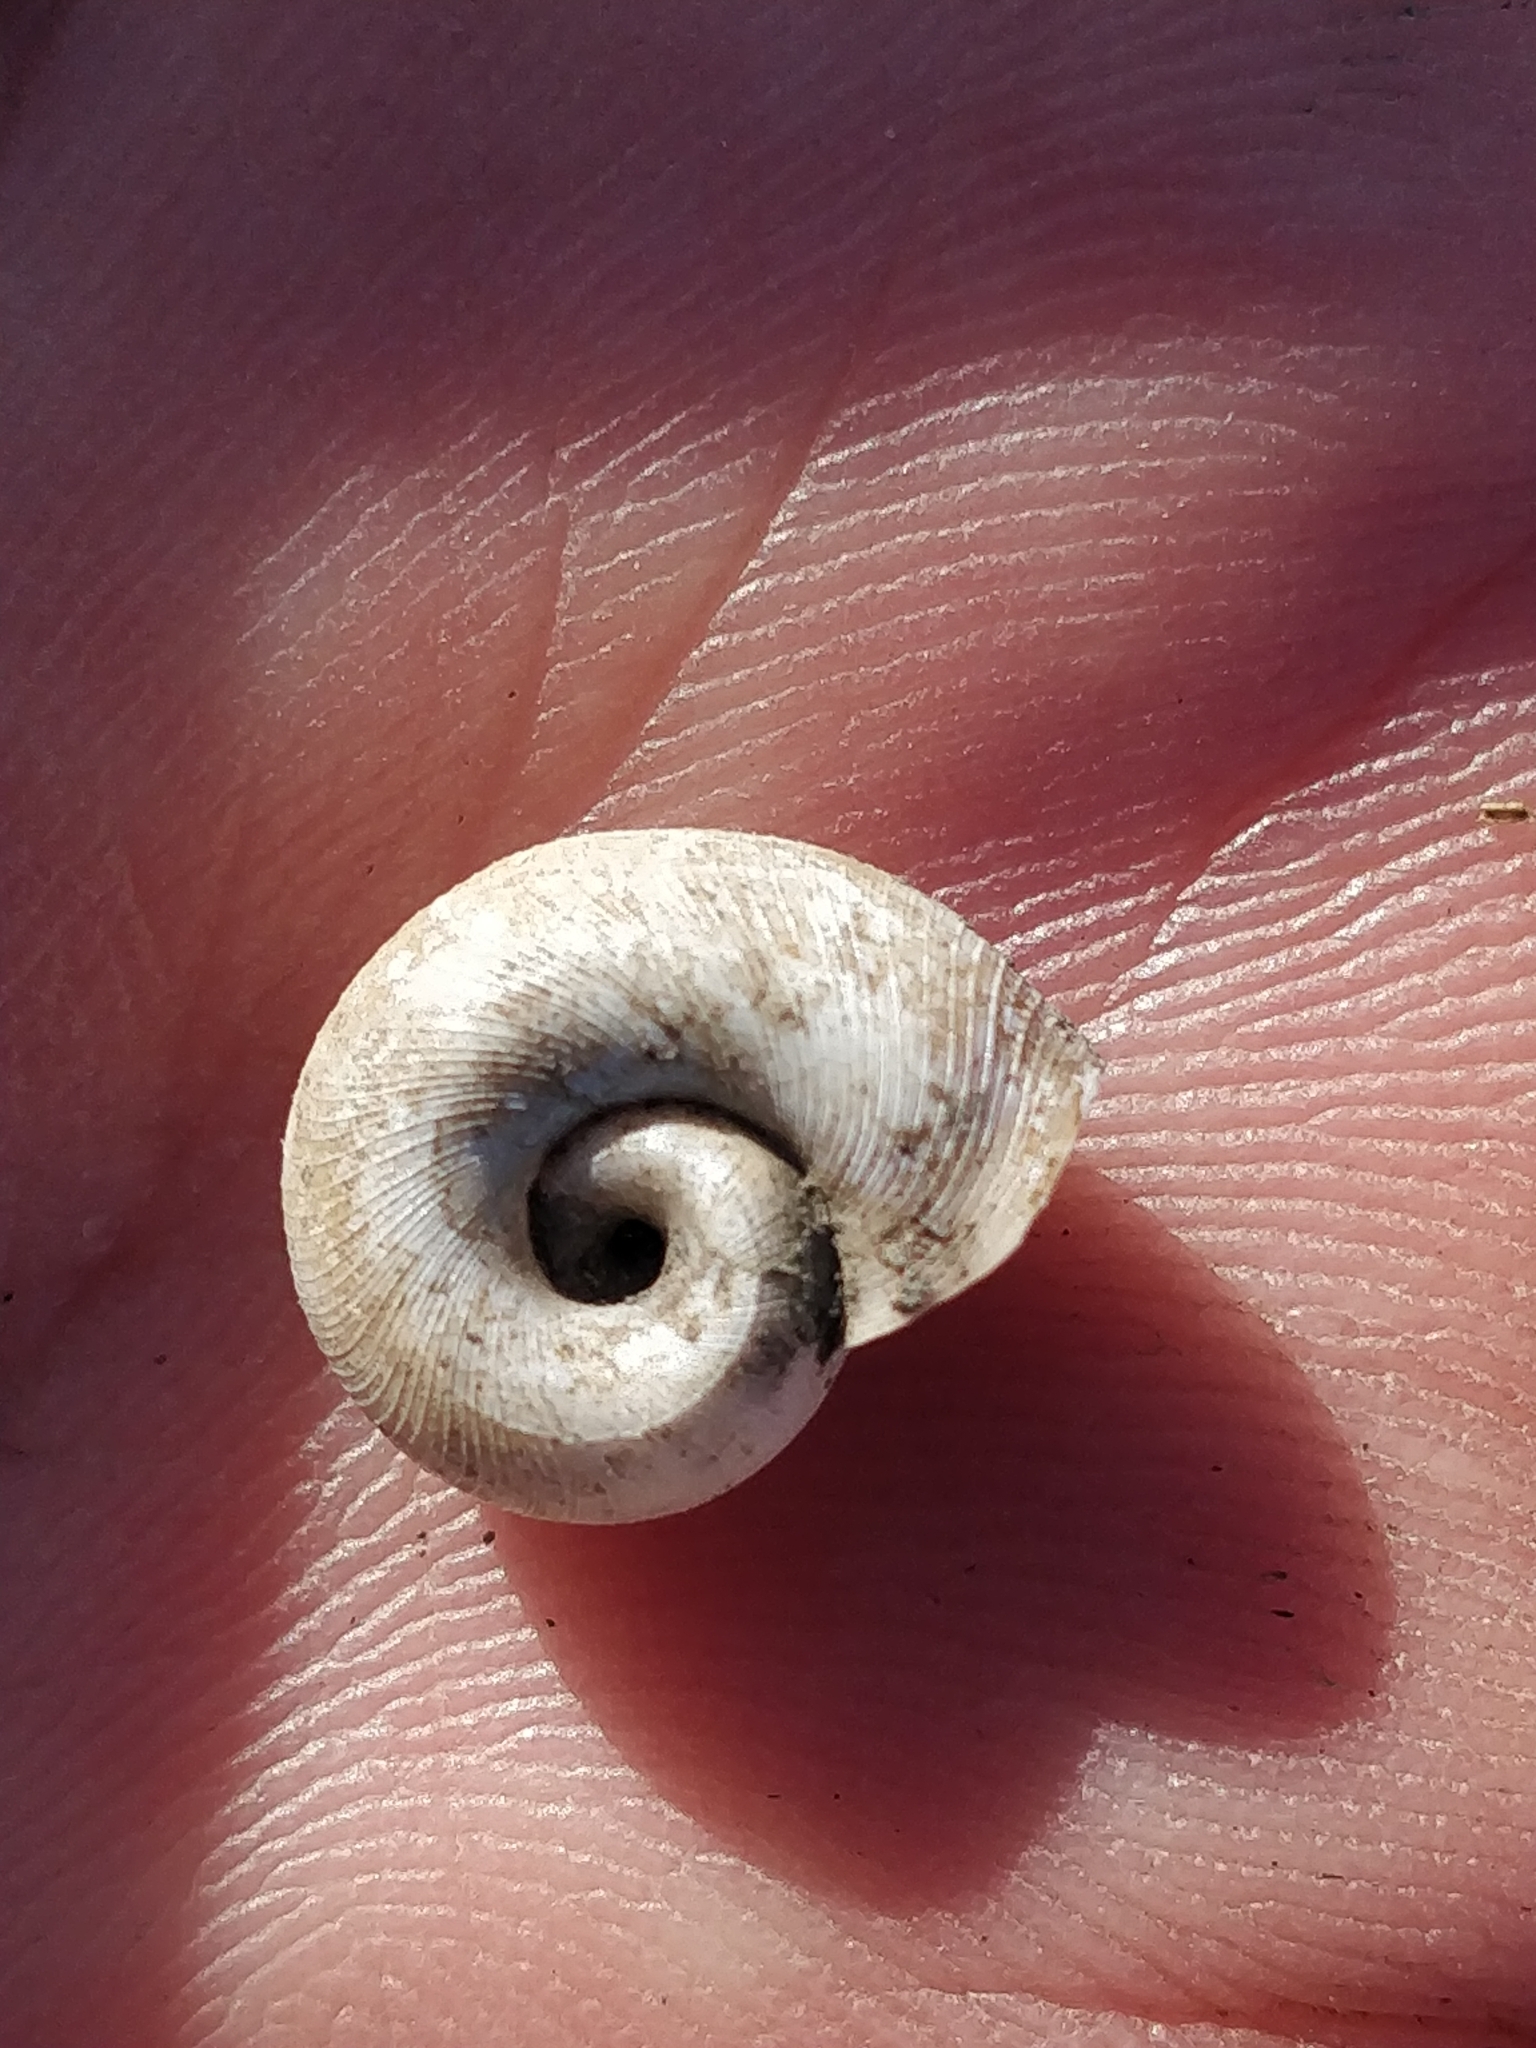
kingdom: Animalia
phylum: Mollusca
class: Gastropoda
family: Planorbidae
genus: Planorbella
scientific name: Planorbella trivolvis
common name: Marsh rams-horn
